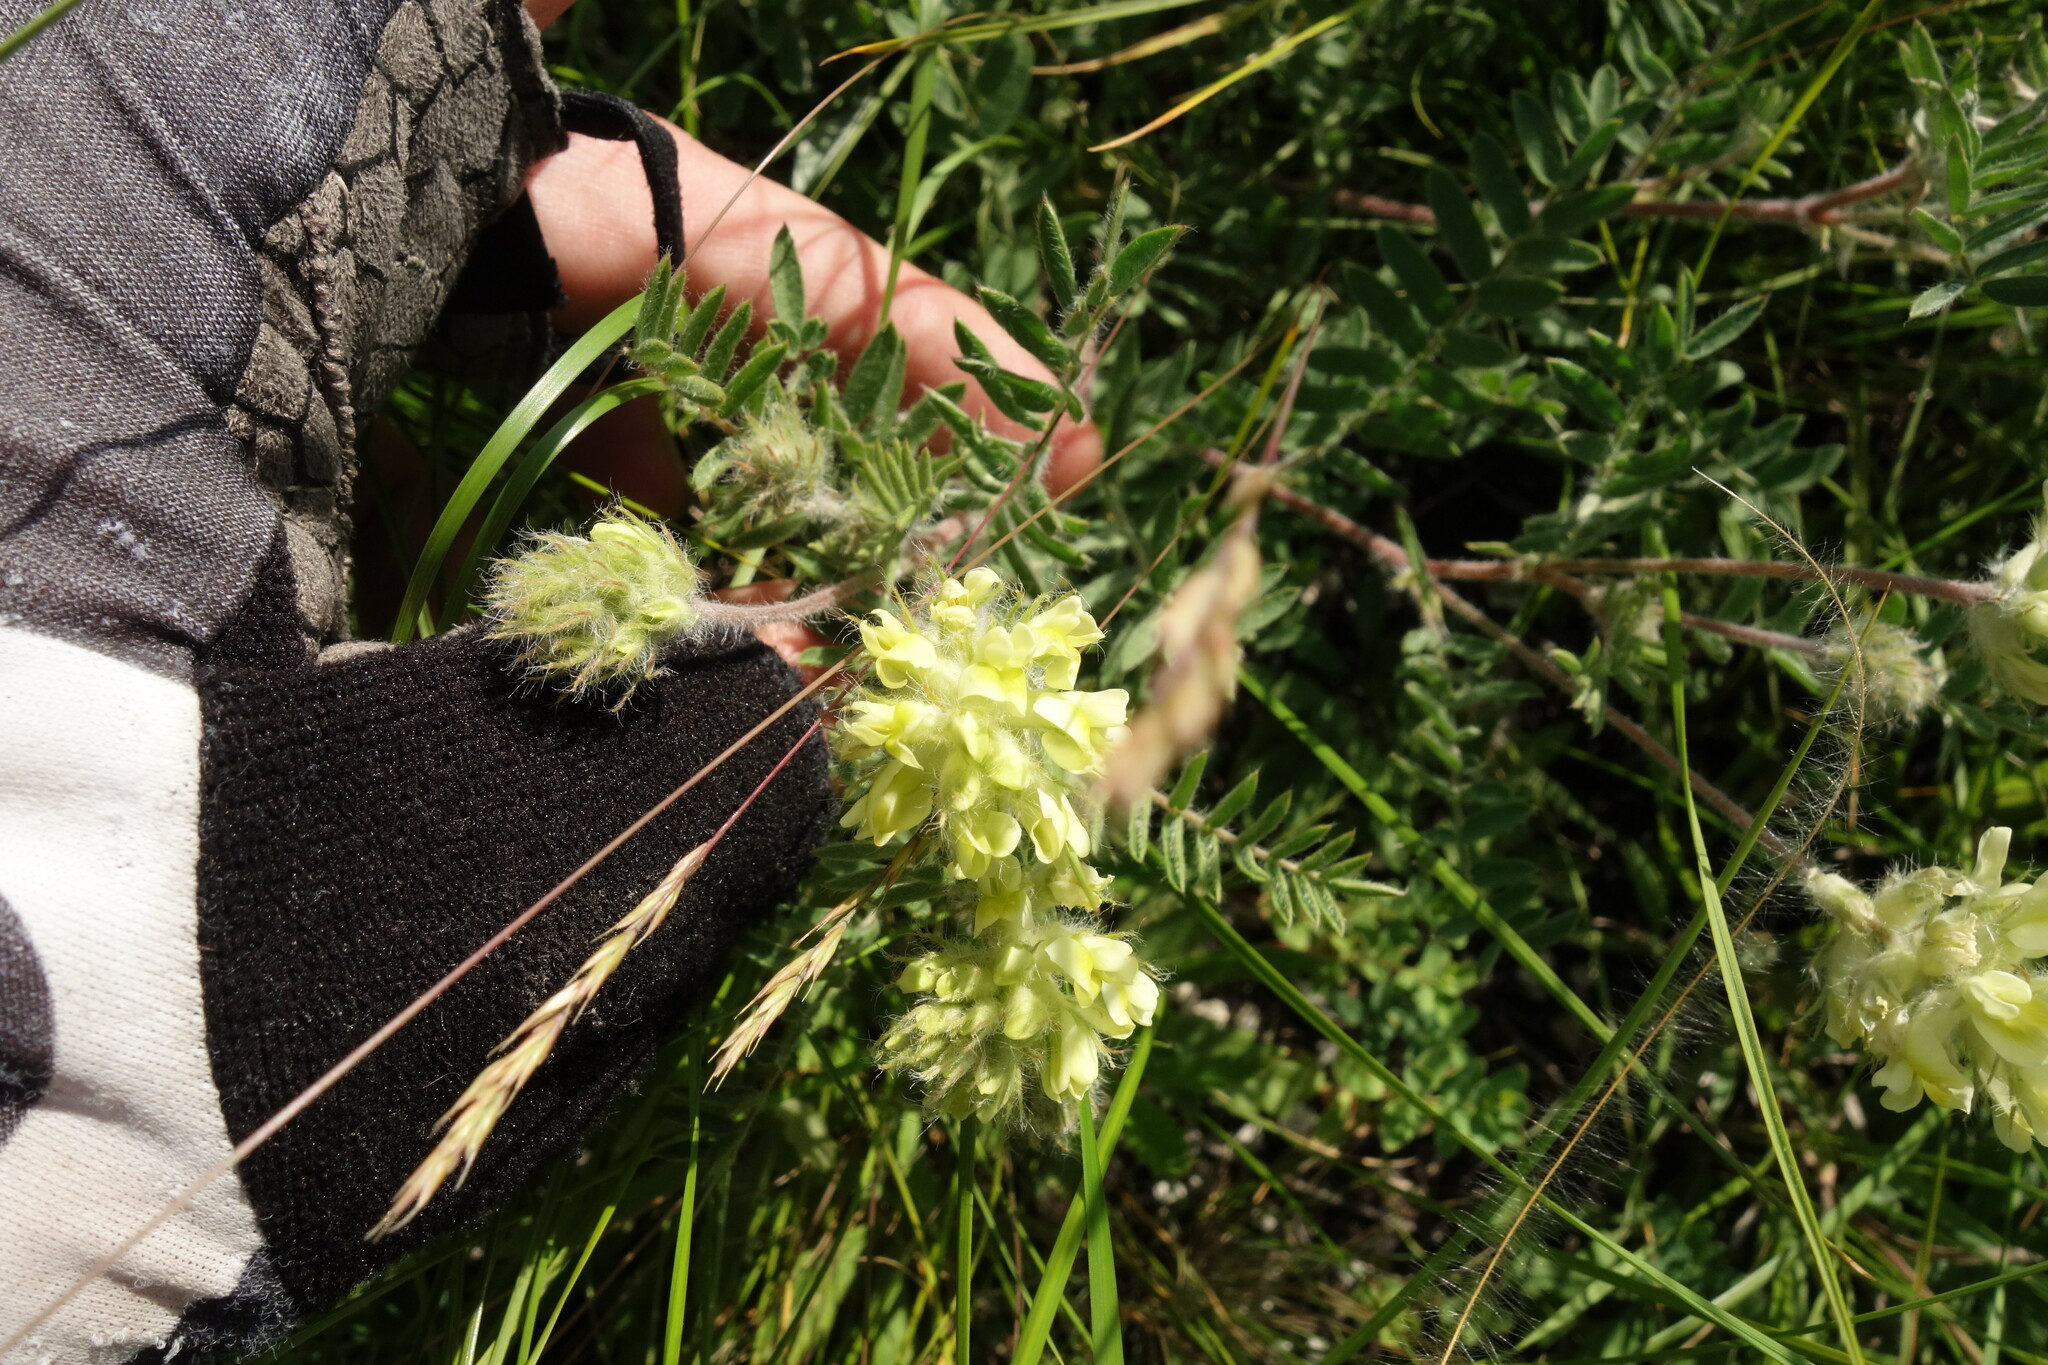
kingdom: Plantae
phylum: Tracheophyta
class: Magnoliopsida
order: Fabales
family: Fabaceae
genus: Oxytropis
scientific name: Oxytropis pilosa
